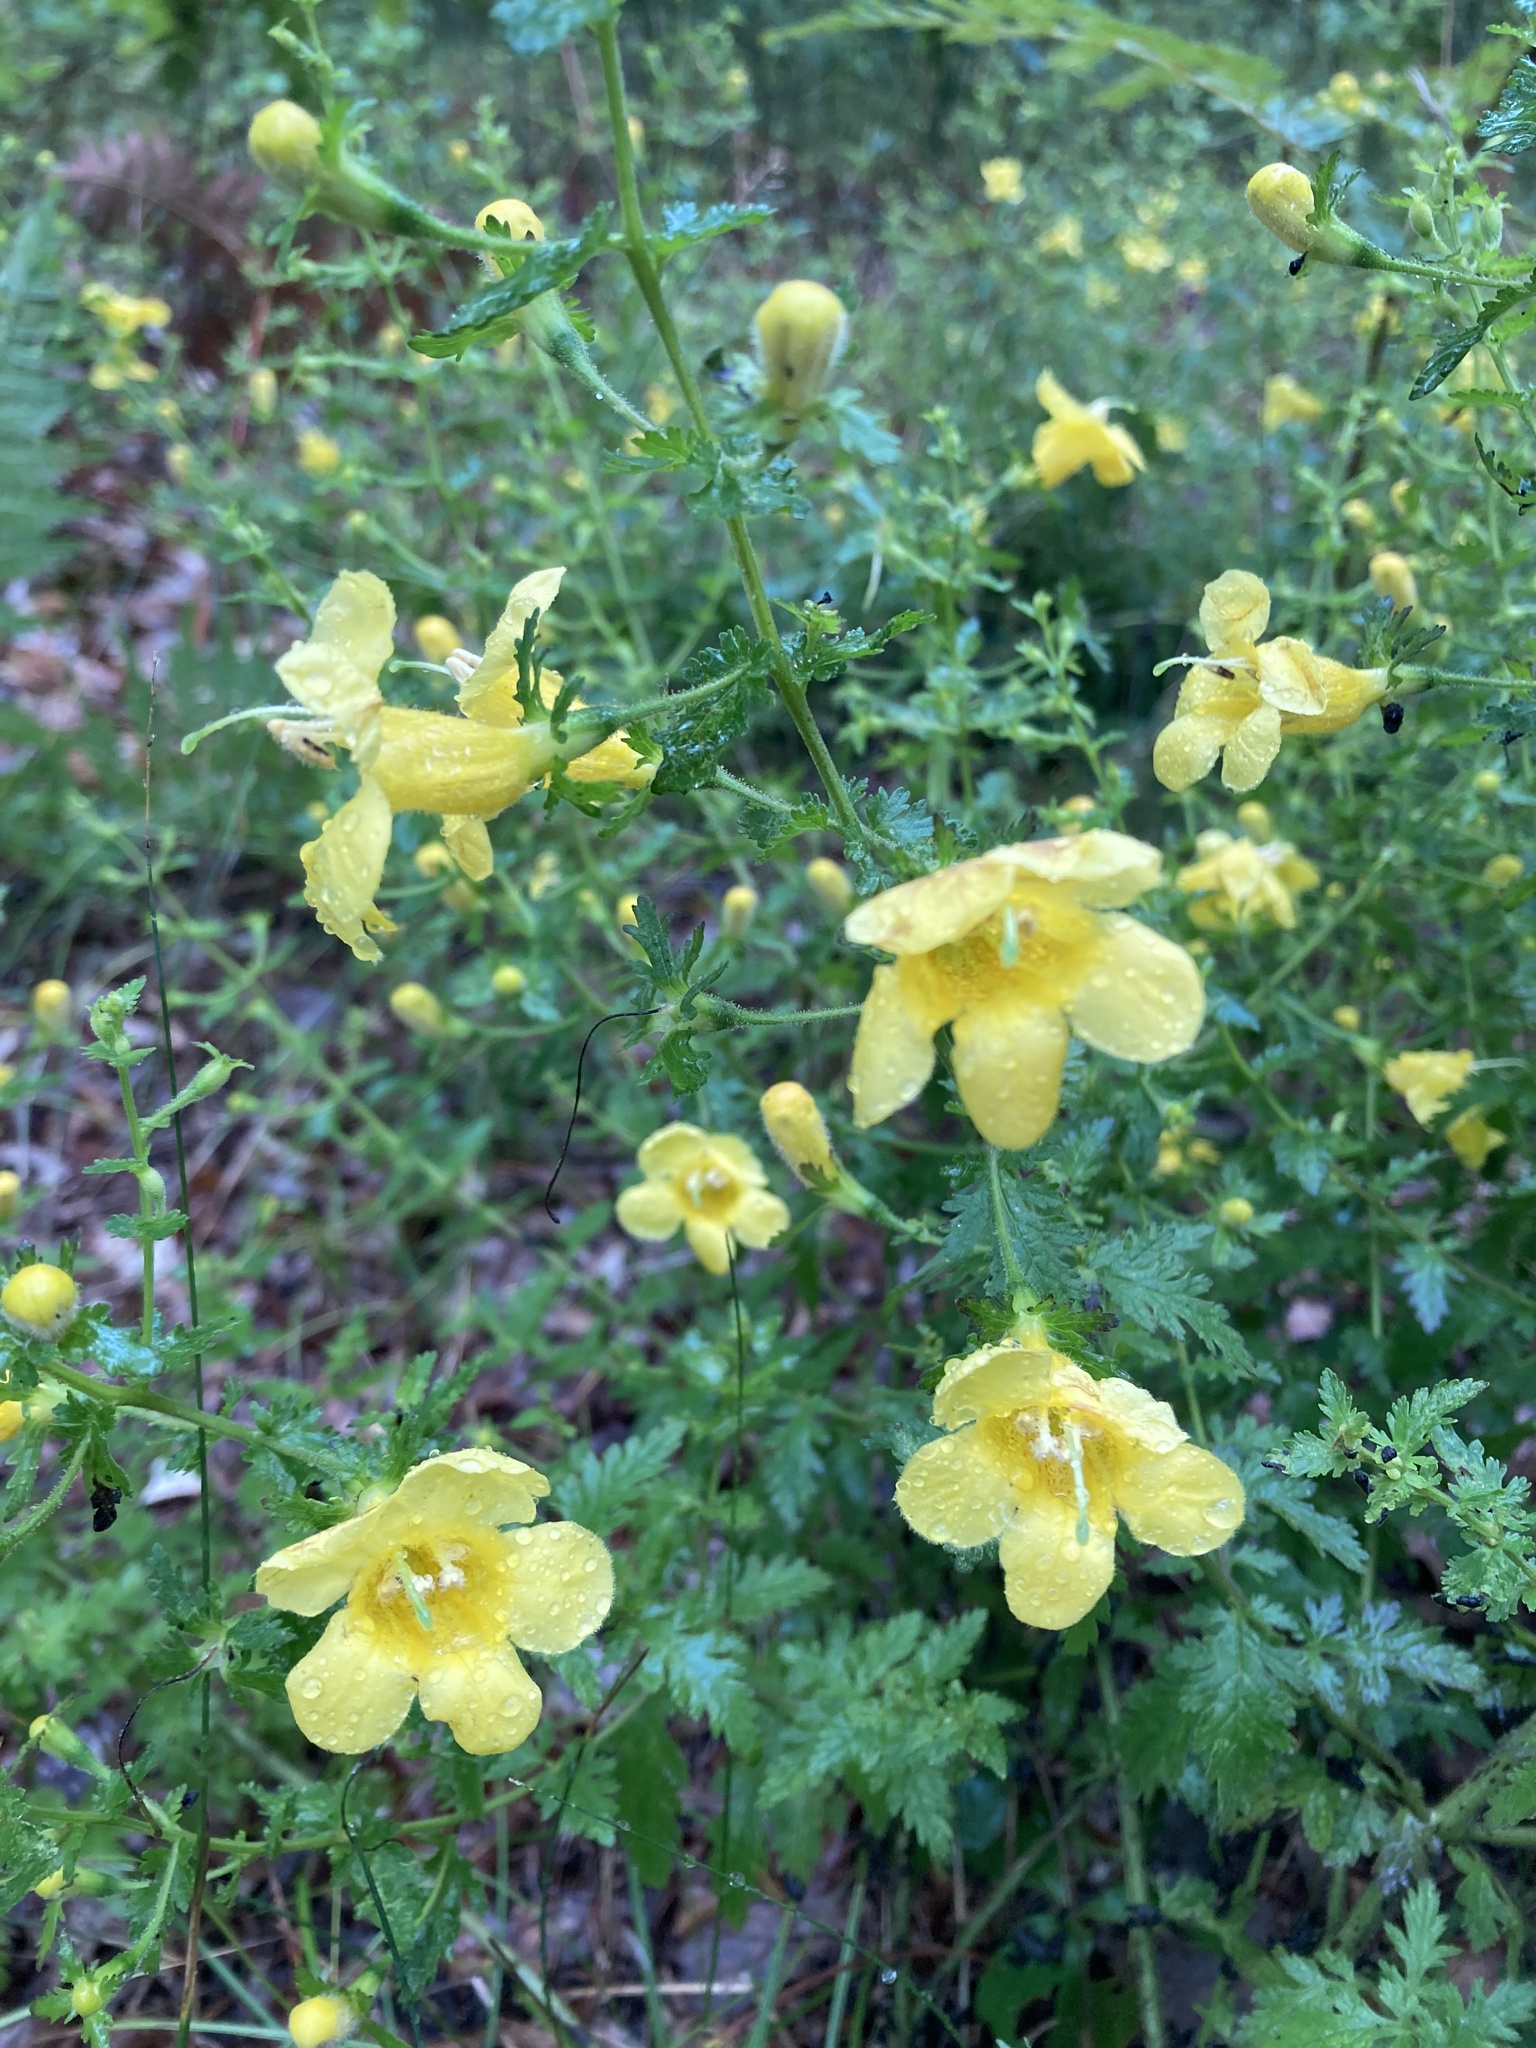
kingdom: Plantae
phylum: Tracheophyta
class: Magnoliopsida
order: Lamiales
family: Orobanchaceae
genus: Aureolaria
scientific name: Aureolaria pedicularia
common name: Annual false foxglove
